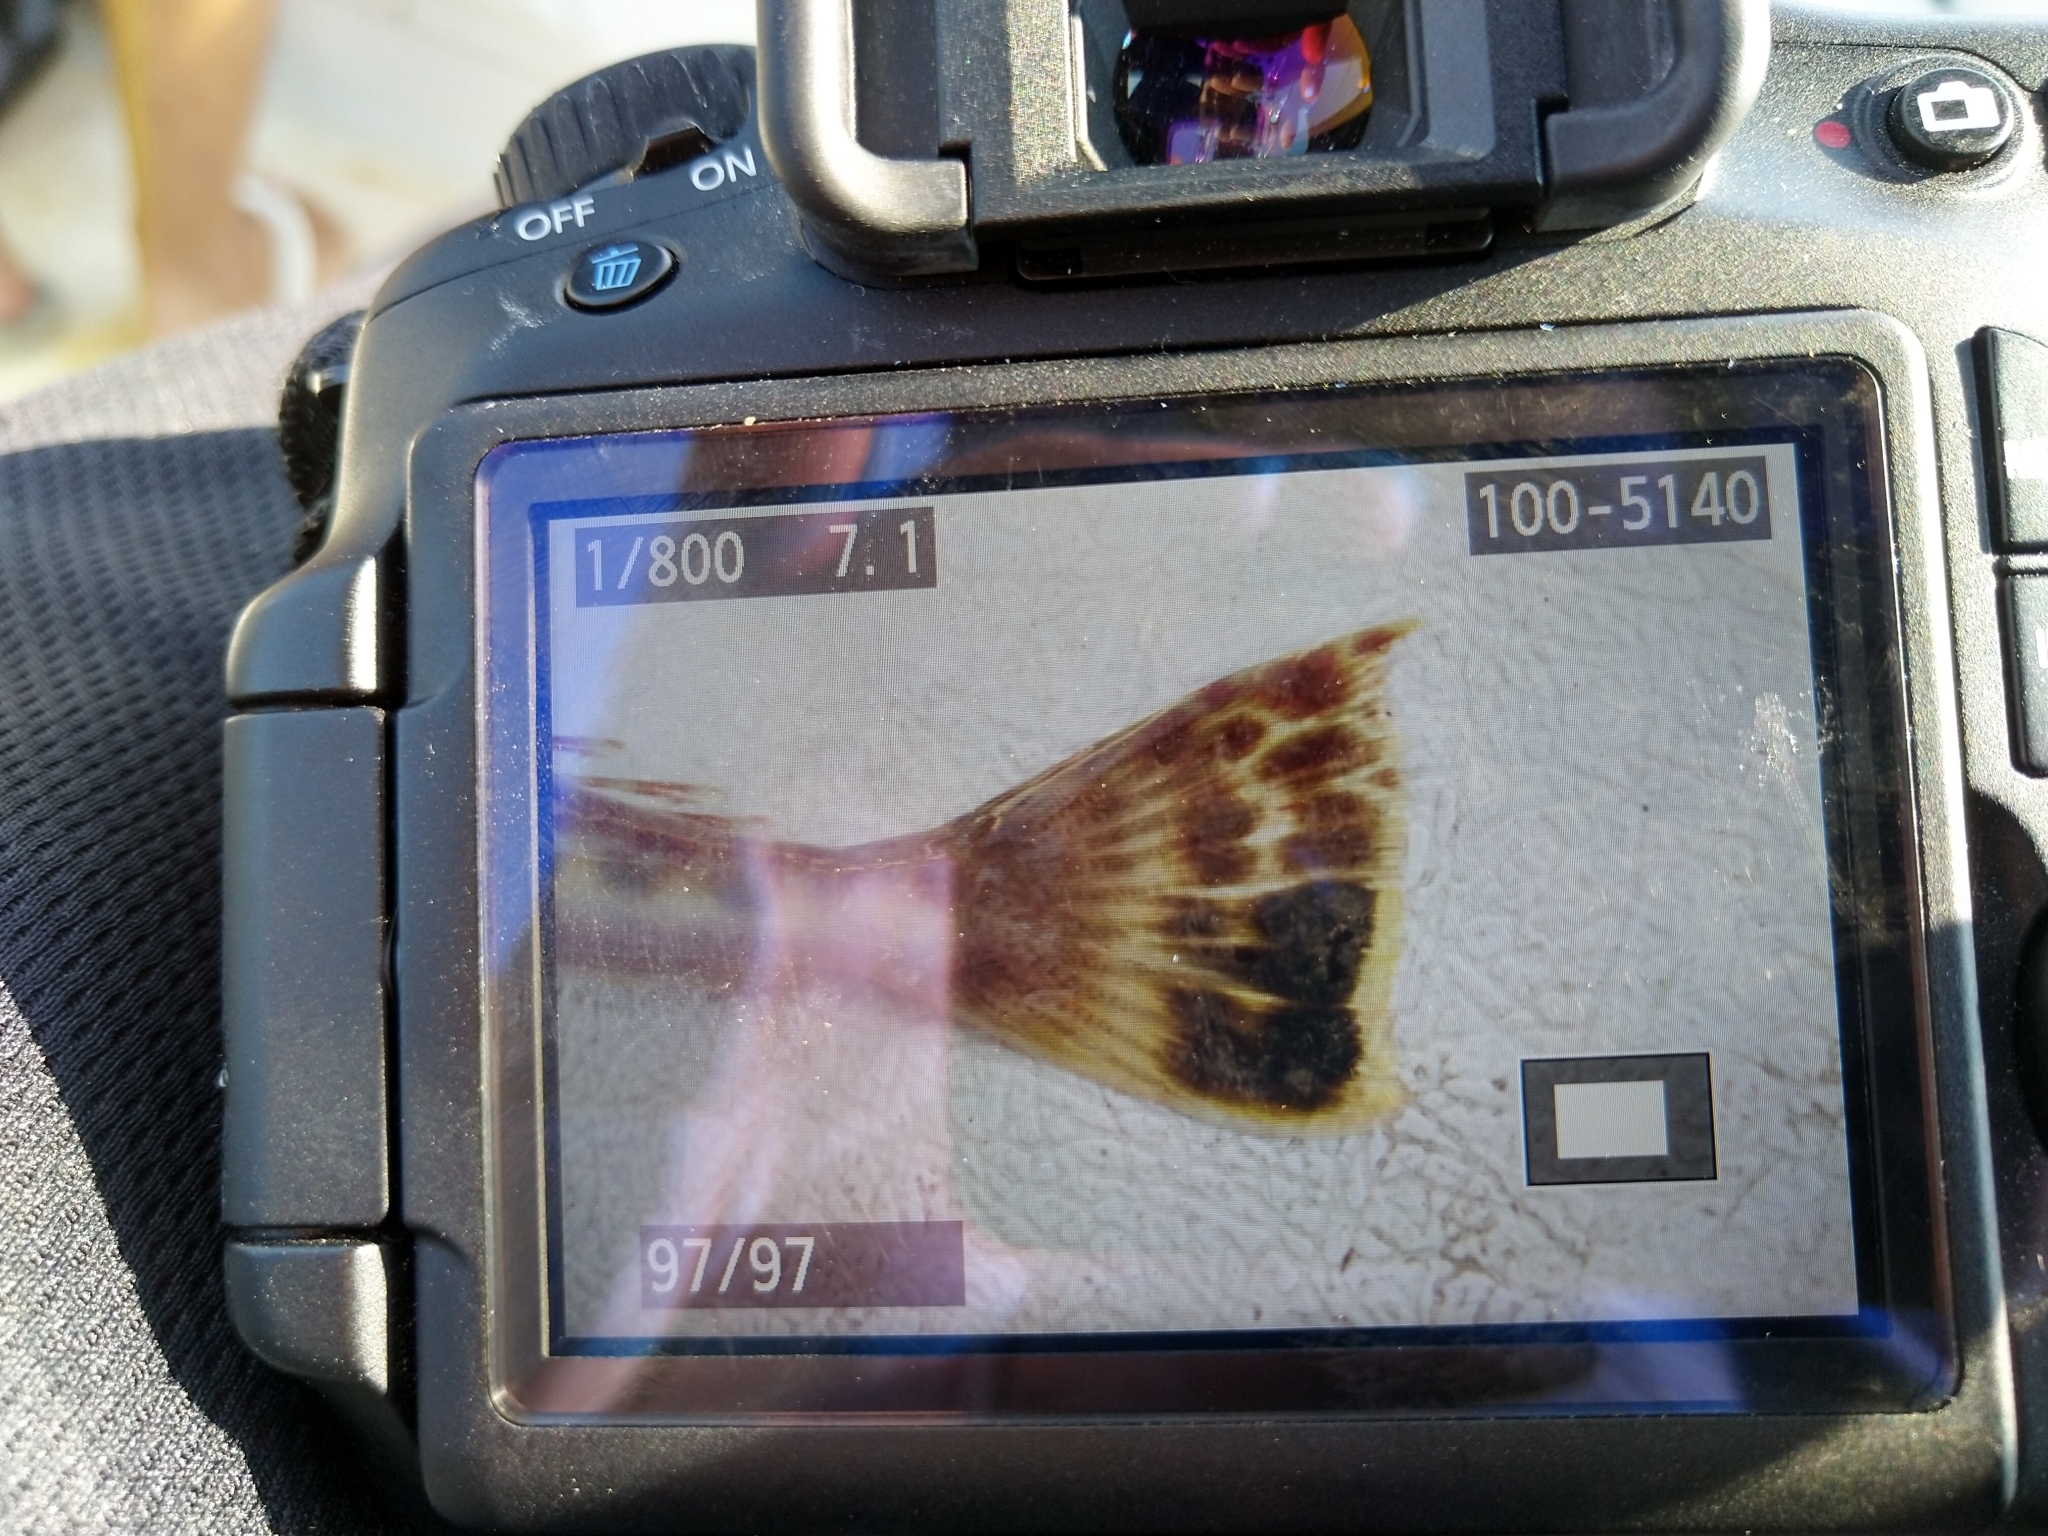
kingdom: Animalia
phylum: Chordata
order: Scorpaeniformes
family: Platycephalidae
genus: Platycephalus
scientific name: Platycephalus bassensis
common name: Sand flathead
